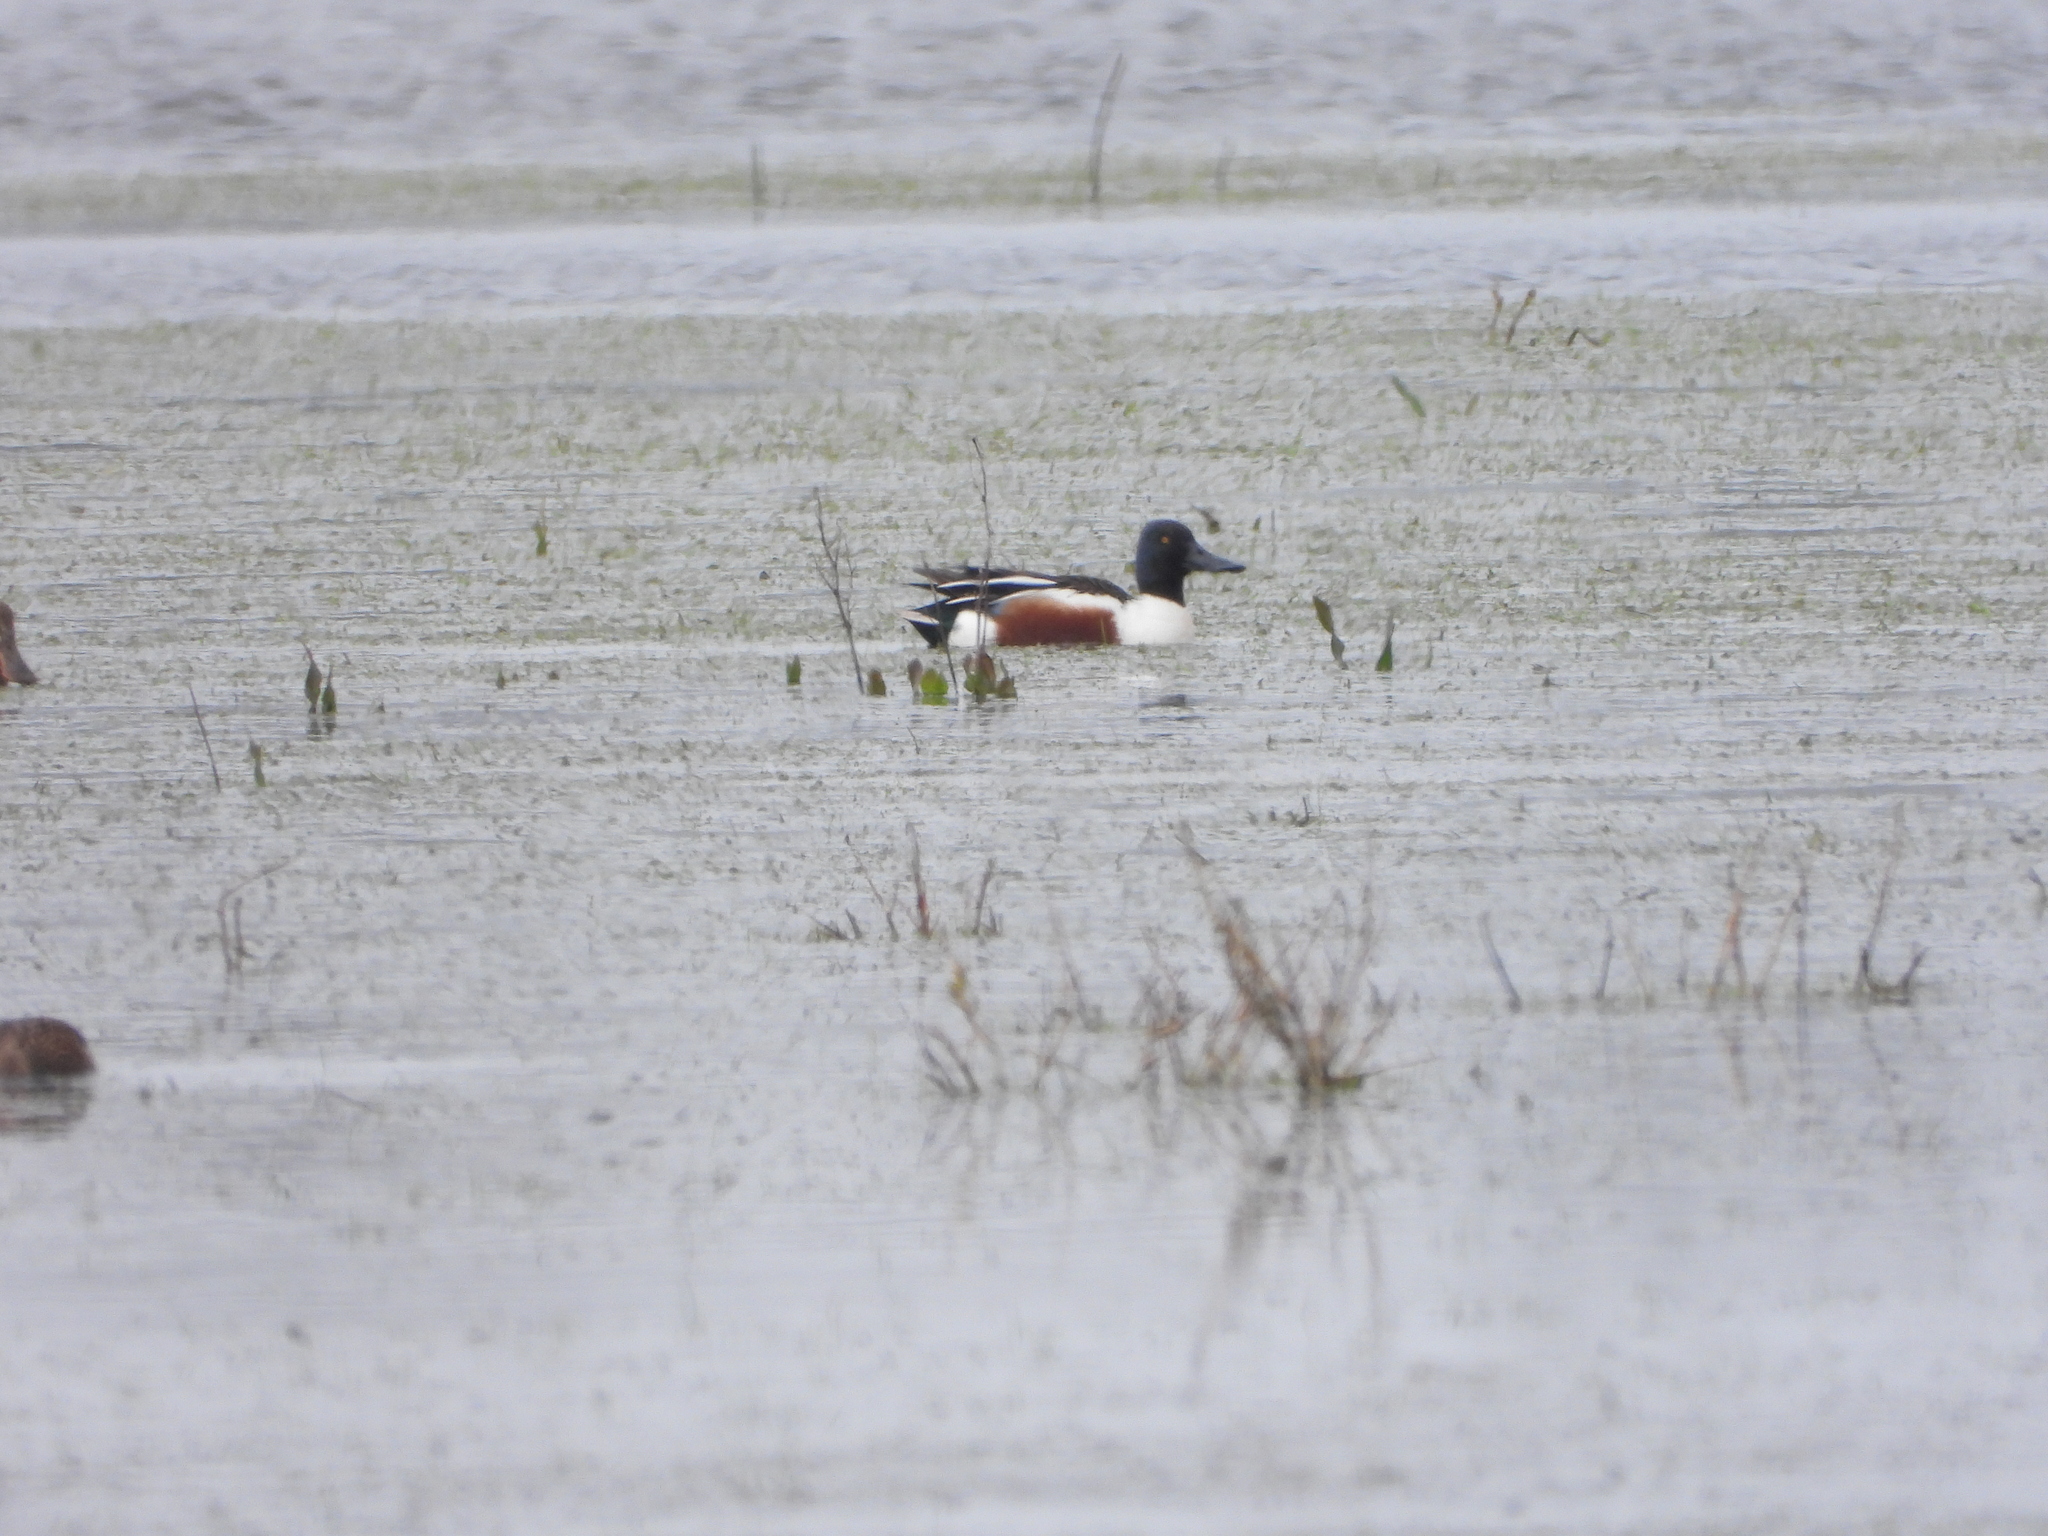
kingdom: Animalia
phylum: Chordata
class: Aves
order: Anseriformes
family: Anatidae
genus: Spatula
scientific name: Spatula clypeata
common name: Northern shoveler
